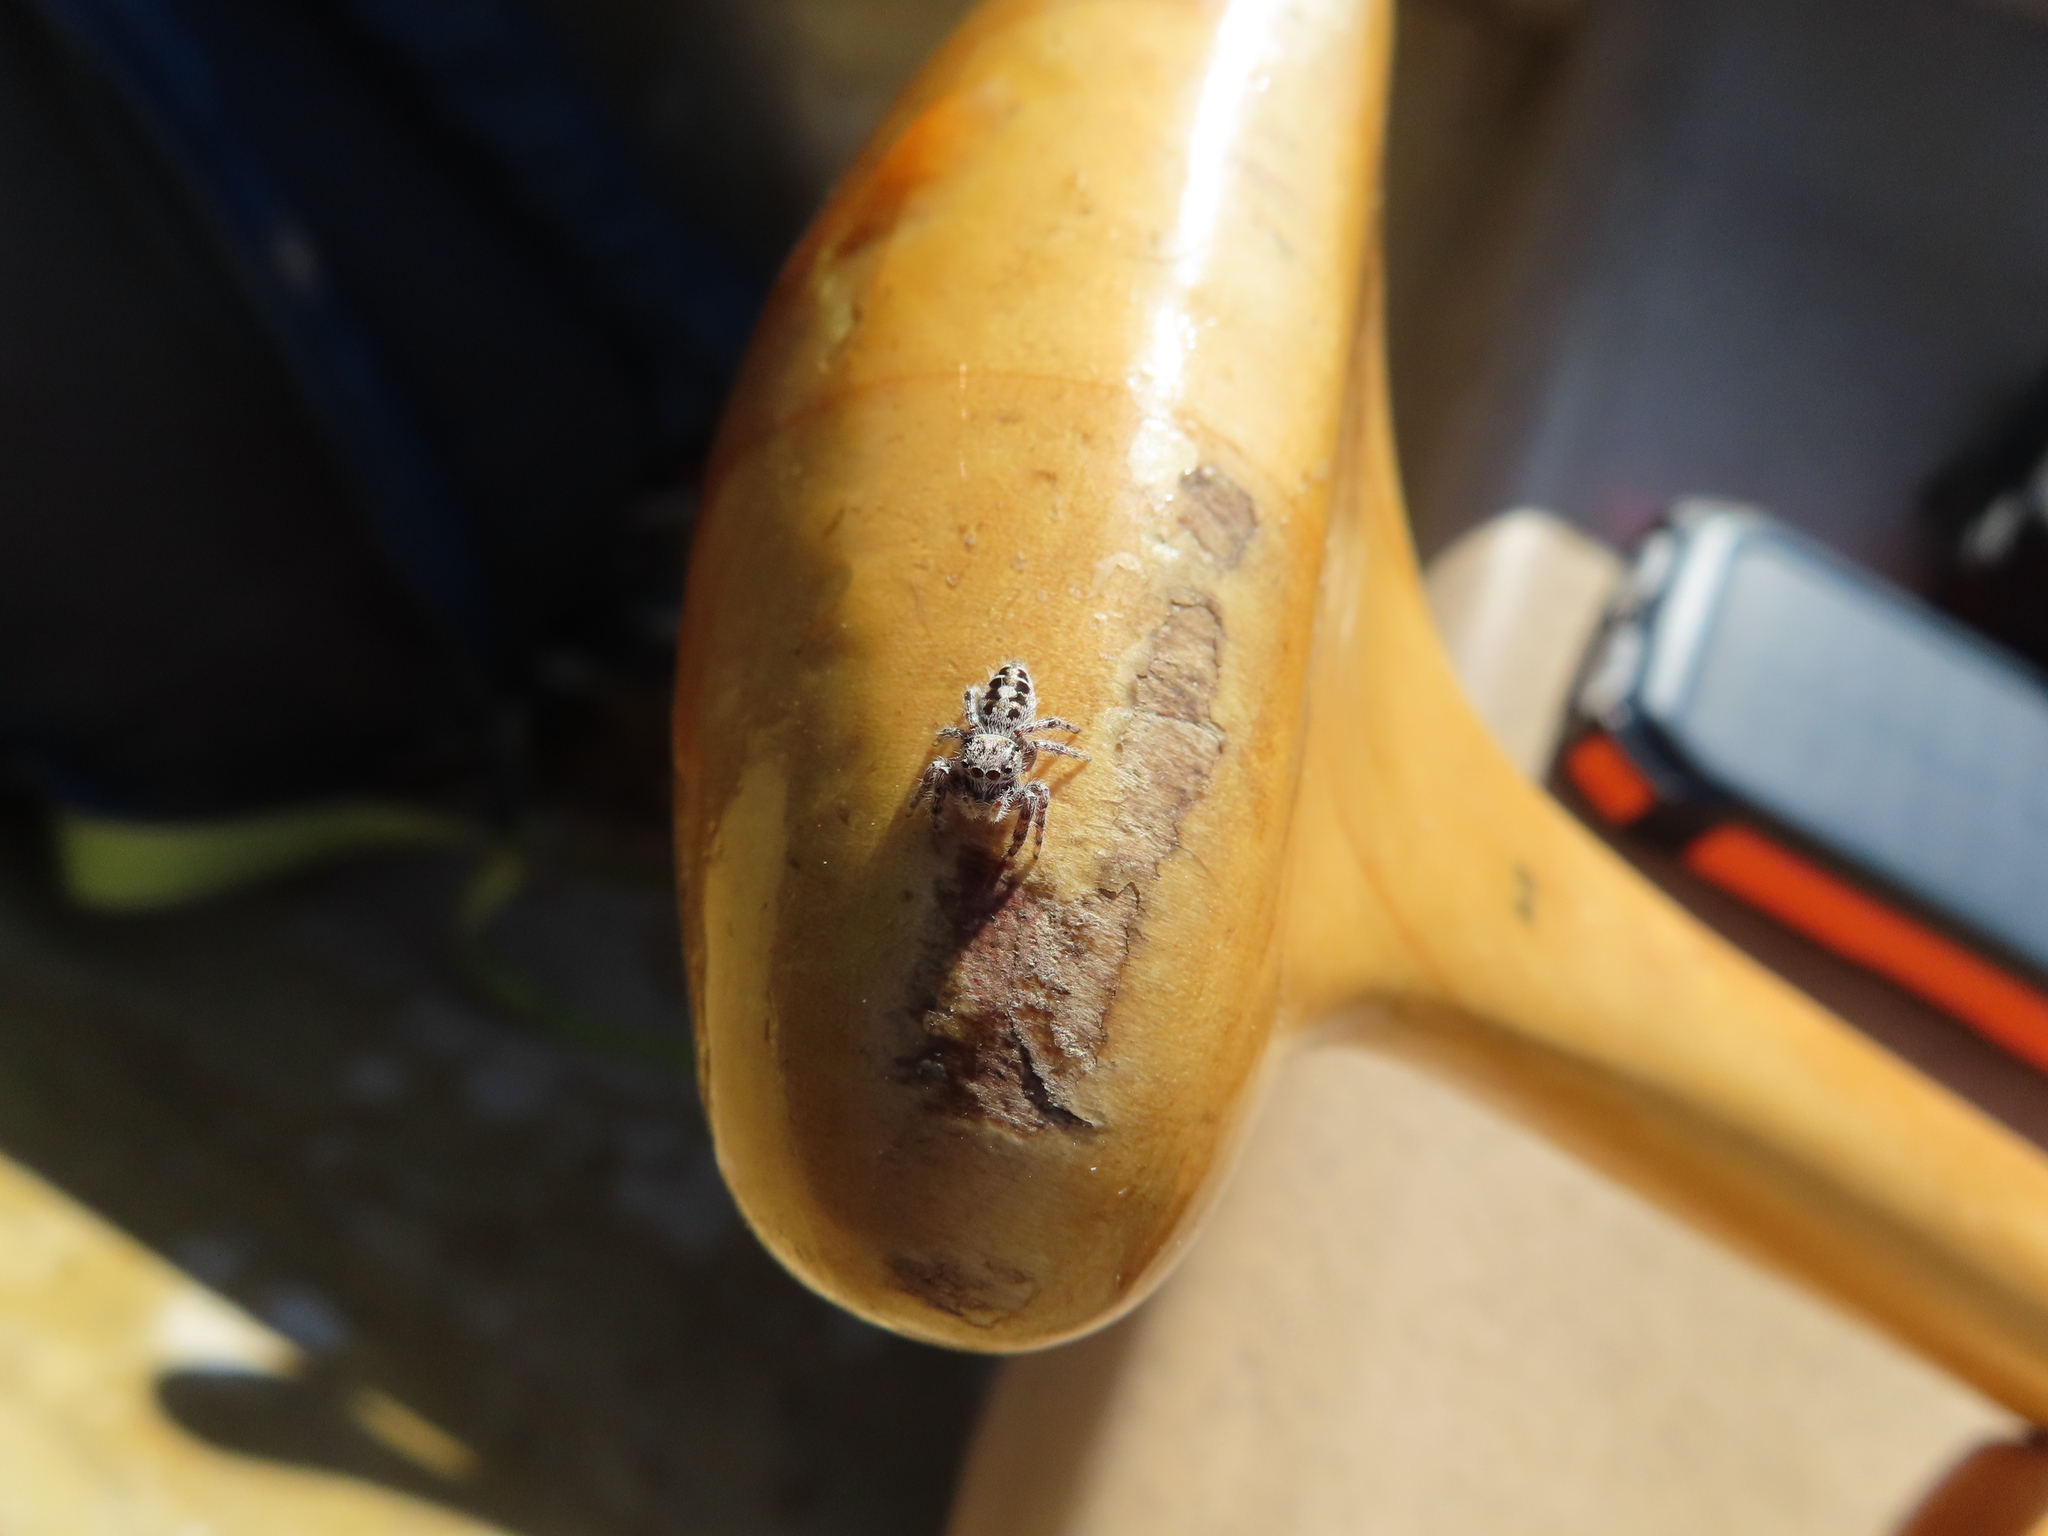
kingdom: Animalia
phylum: Arthropoda
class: Arachnida
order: Araneae
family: Salticidae
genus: Phidippus
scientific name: Phidippus putnami
